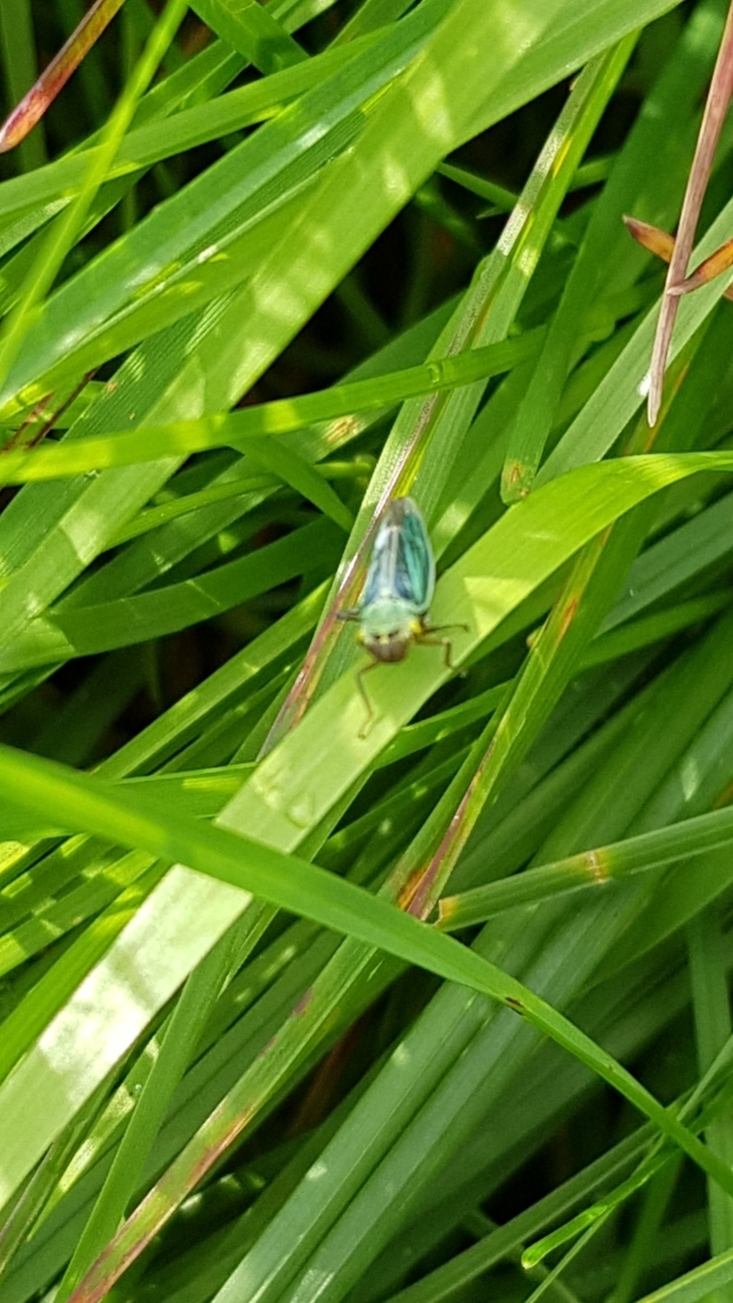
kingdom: Animalia
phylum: Arthropoda
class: Insecta
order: Hemiptera
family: Cicadellidae
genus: Cicadella
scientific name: Cicadella viridis
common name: Leafhopper
